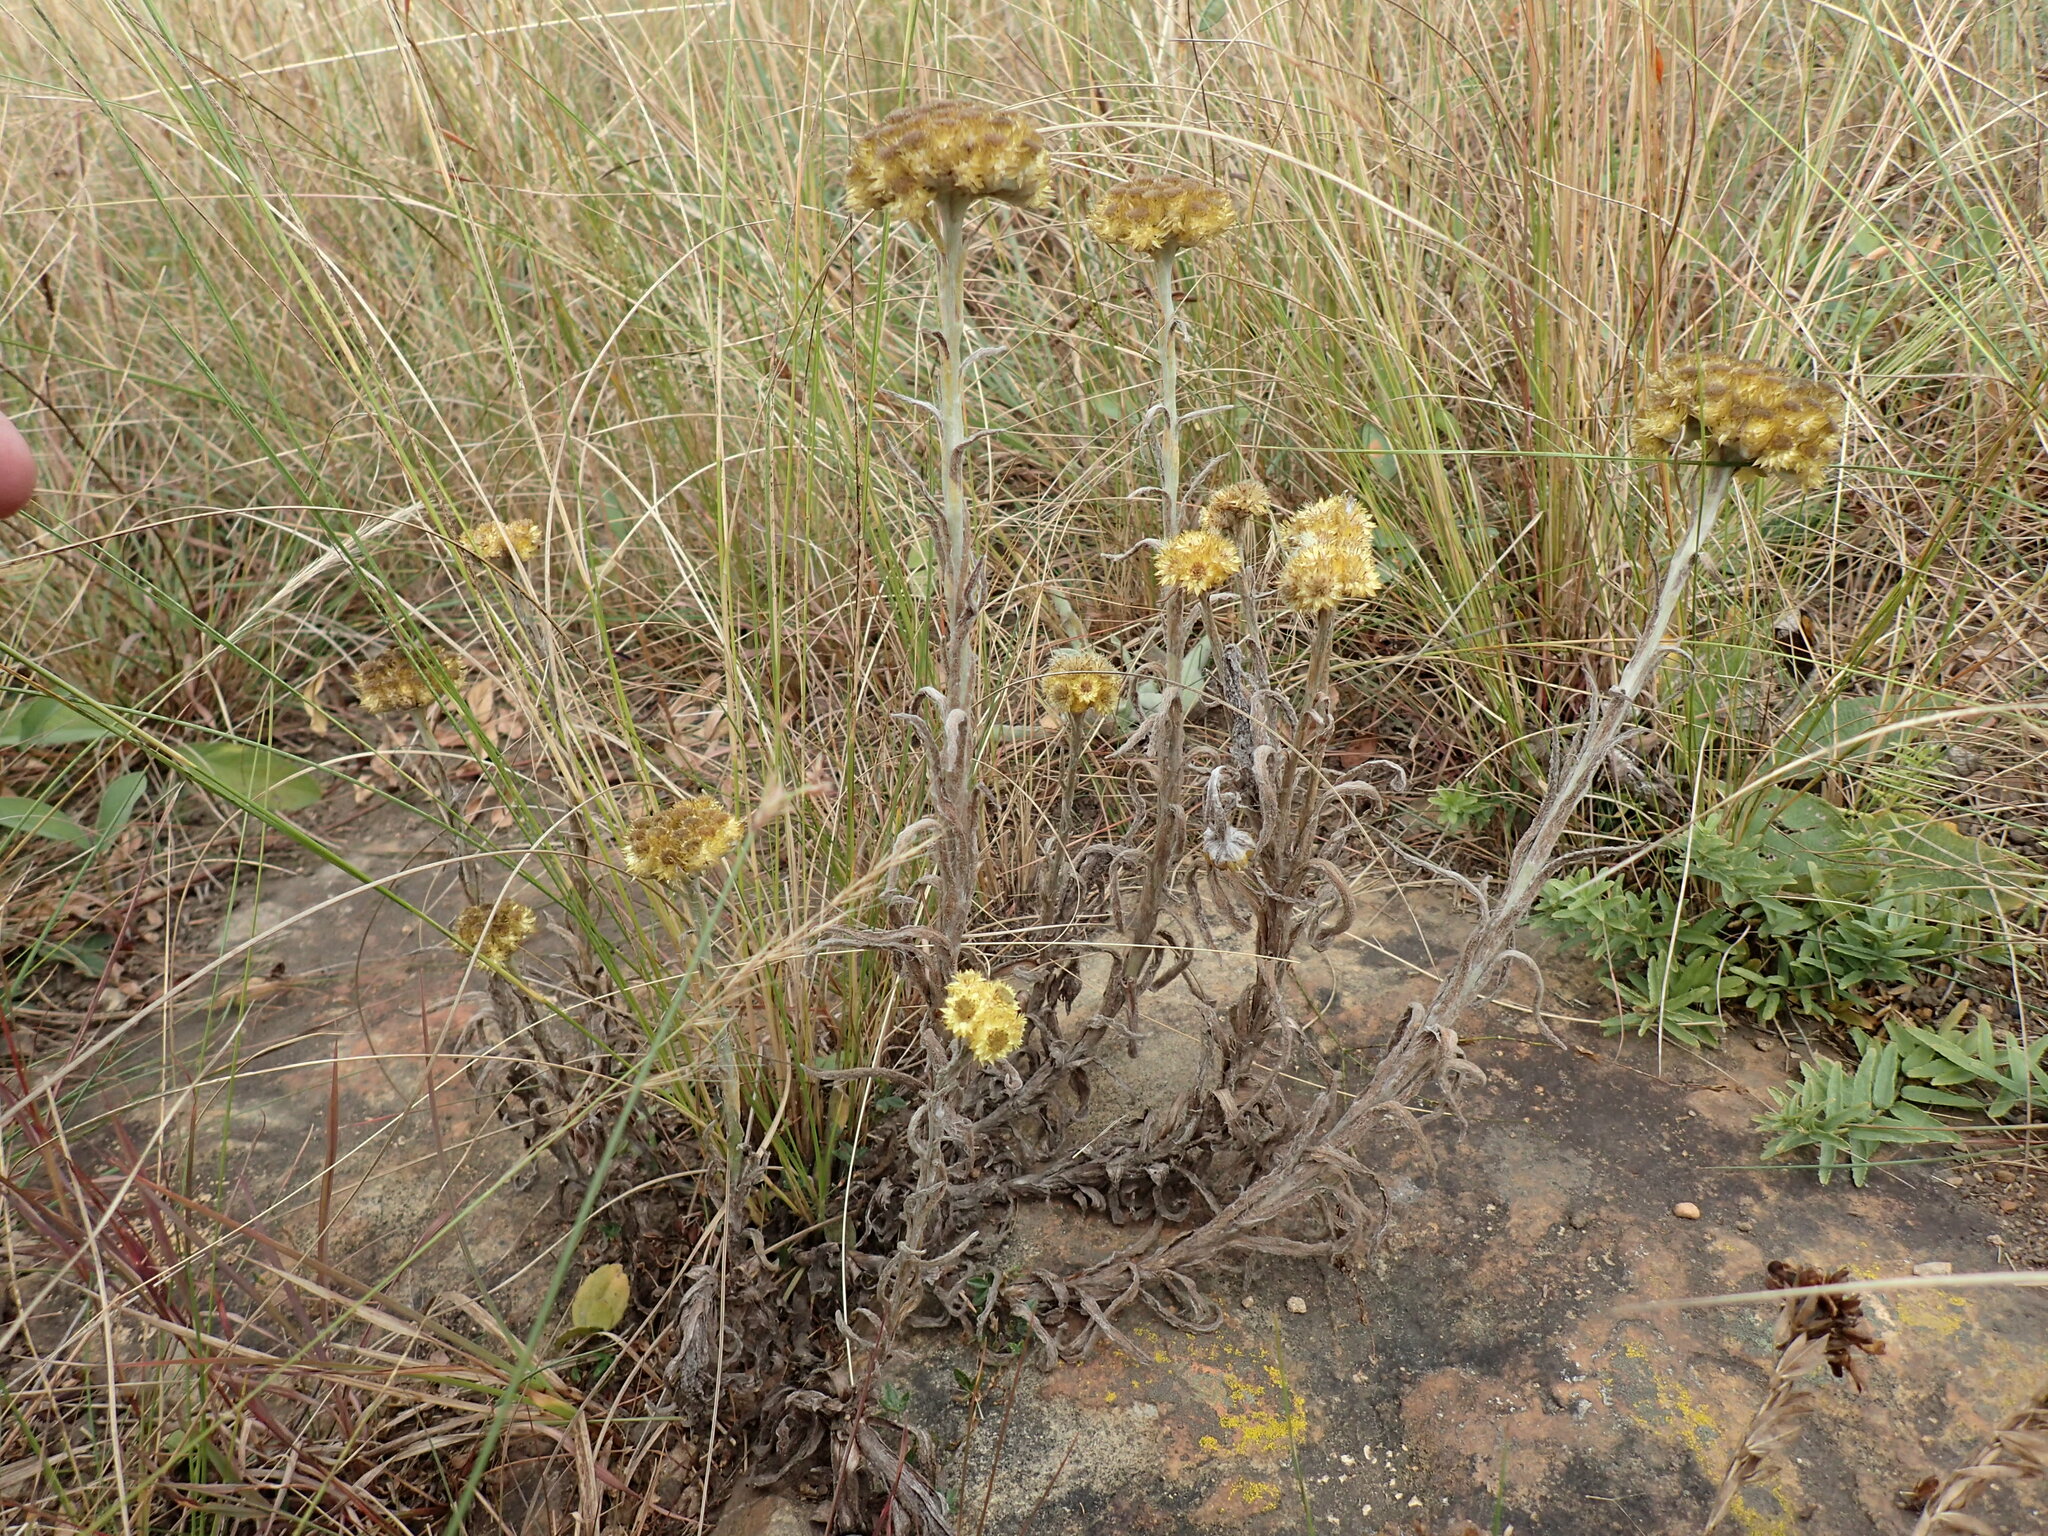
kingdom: Plantae
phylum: Tracheophyta
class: Magnoliopsida
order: Asterales
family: Asteraceae
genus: Helichrysum
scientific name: Helichrysum auriceps
